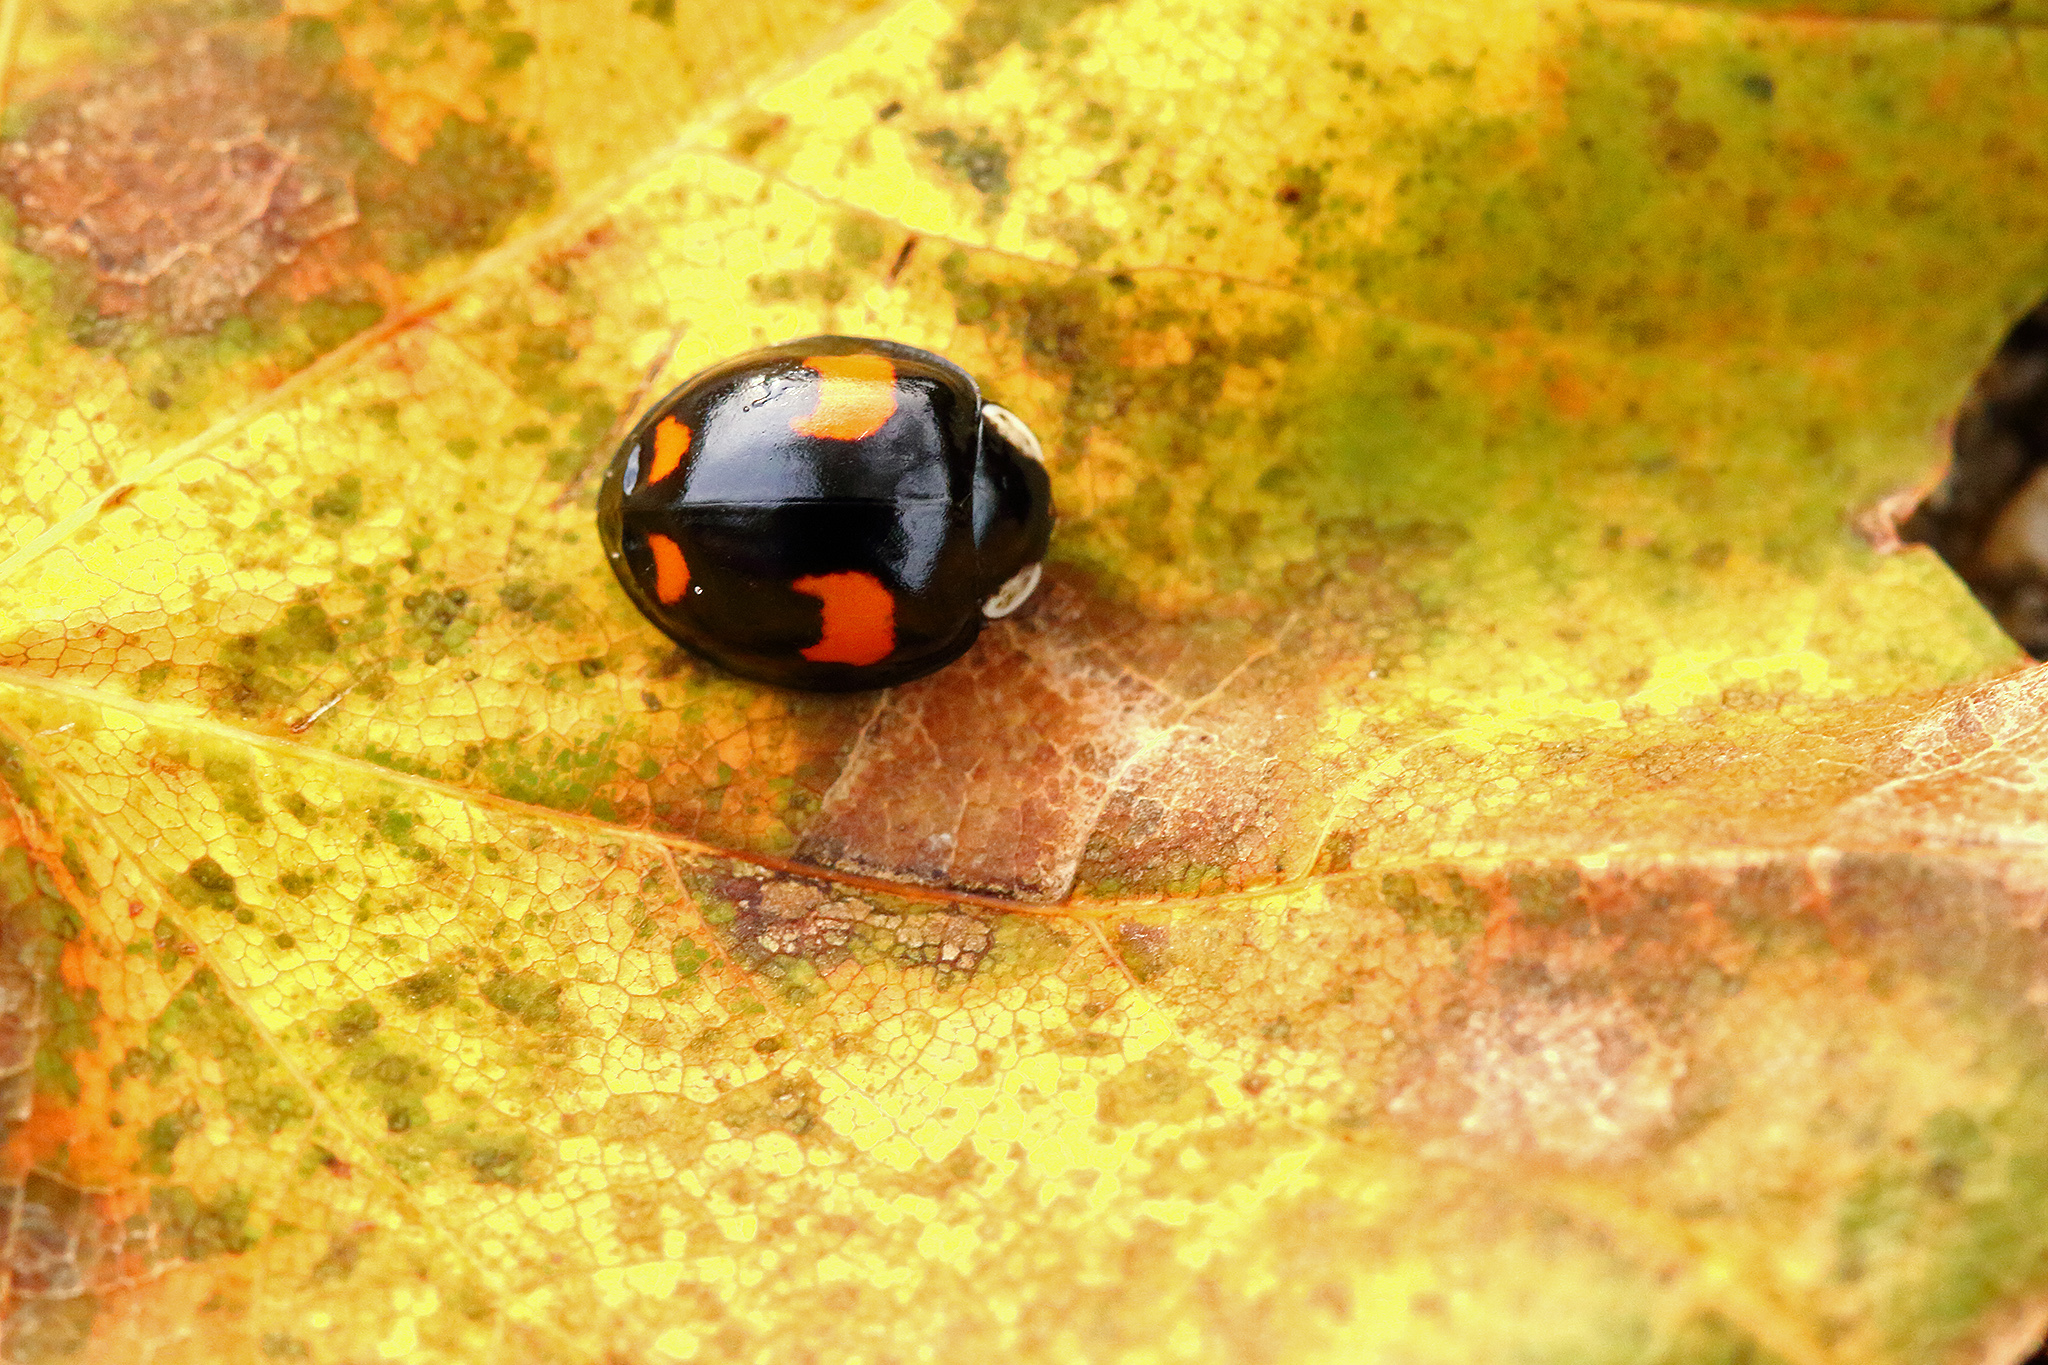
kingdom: Animalia
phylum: Arthropoda
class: Insecta
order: Coleoptera
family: Coccinellidae
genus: Harmonia
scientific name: Harmonia axyridis
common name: Harlequin ladybird
